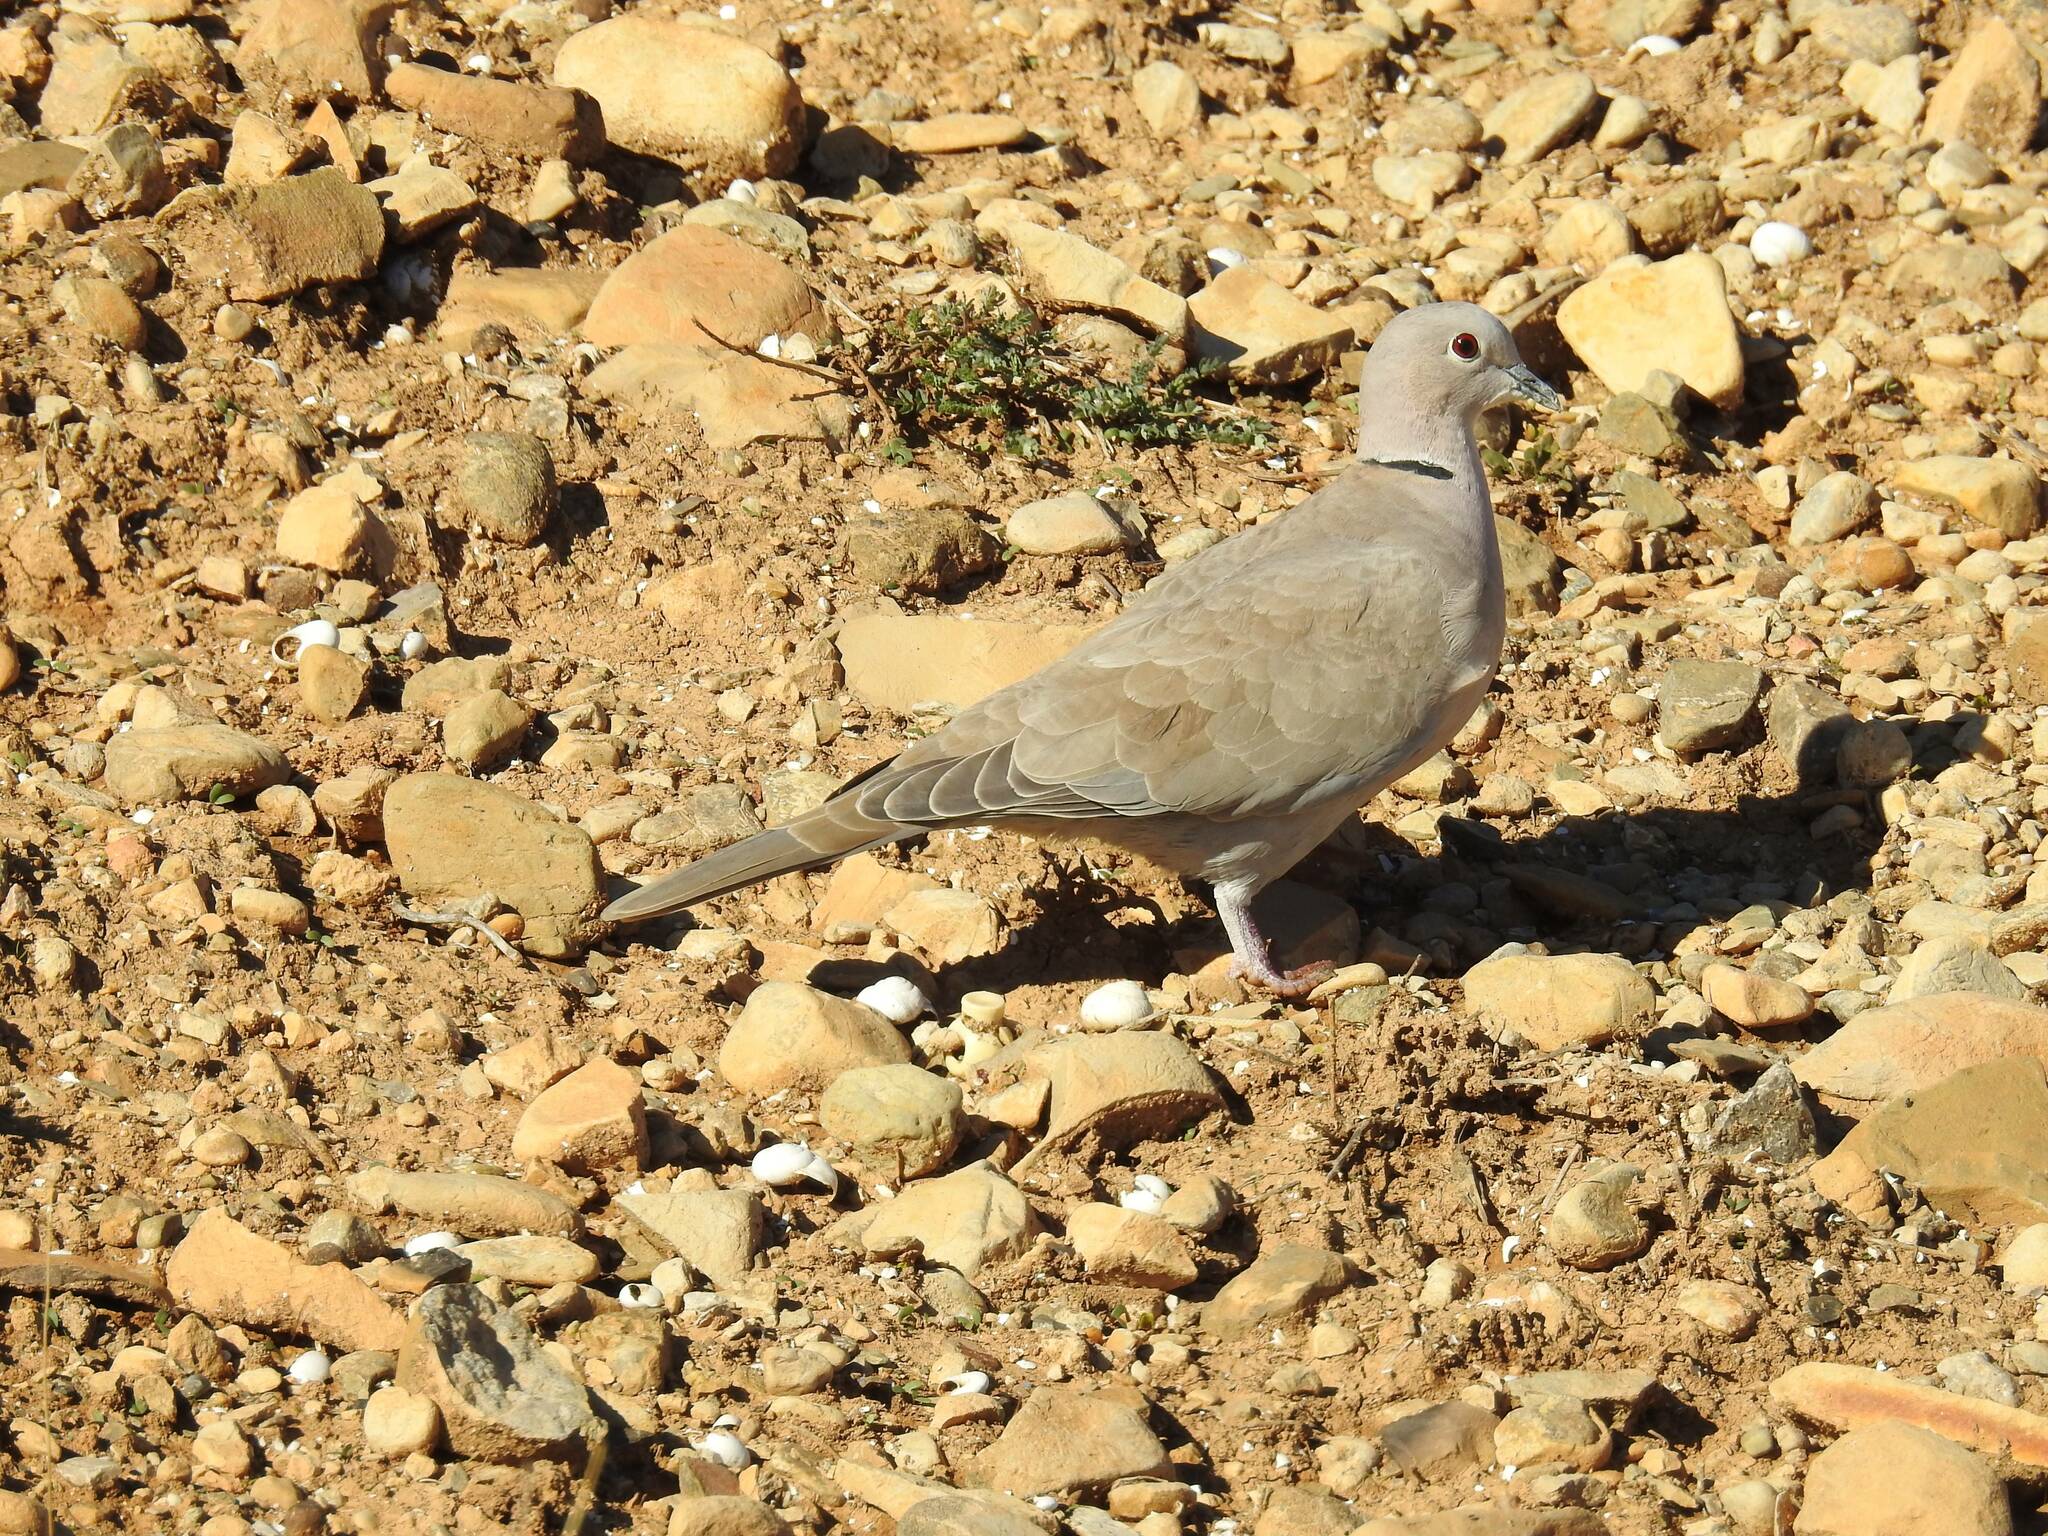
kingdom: Animalia
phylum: Chordata
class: Aves
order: Columbiformes
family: Columbidae
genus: Streptopelia
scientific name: Streptopelia decaocto
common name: Eurasian collared dove
